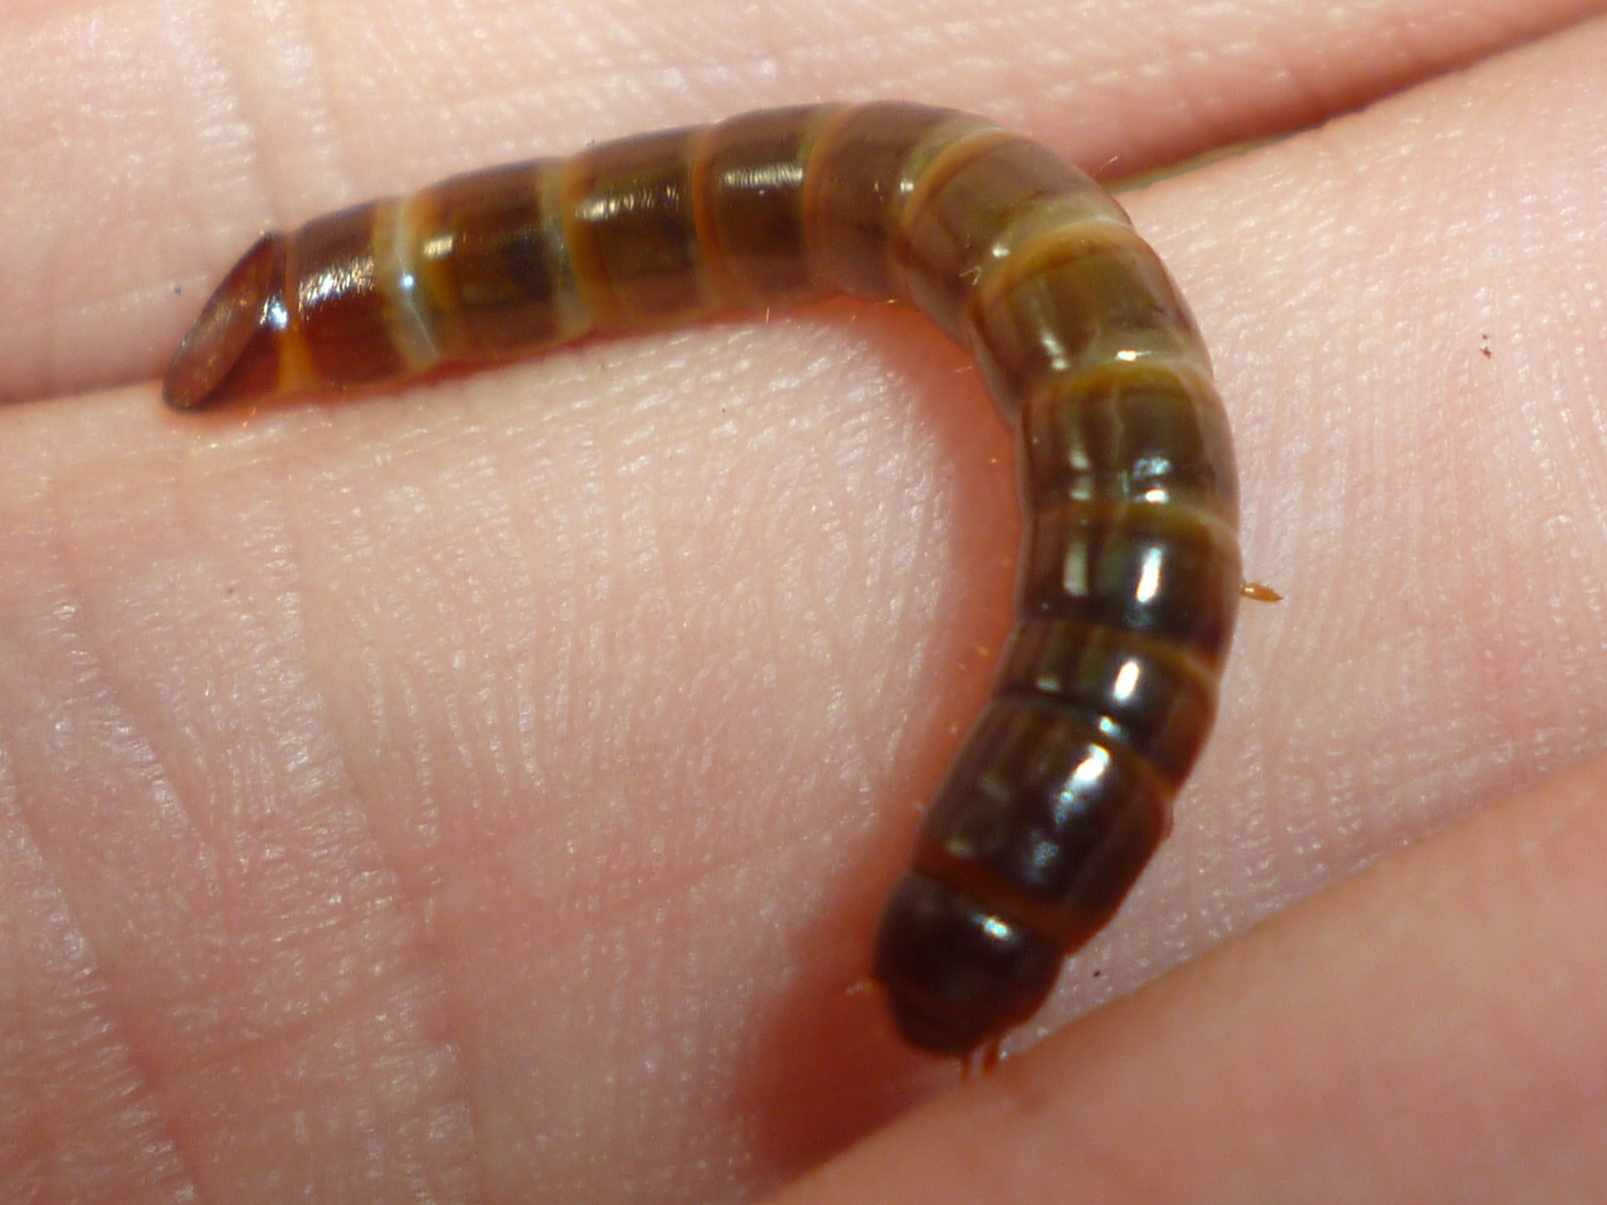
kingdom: Animalia
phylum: Arthropoda
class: Insecta
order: Coleoptera
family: Tenebrionidae
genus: Meracantha
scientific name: Meracantha contracta
